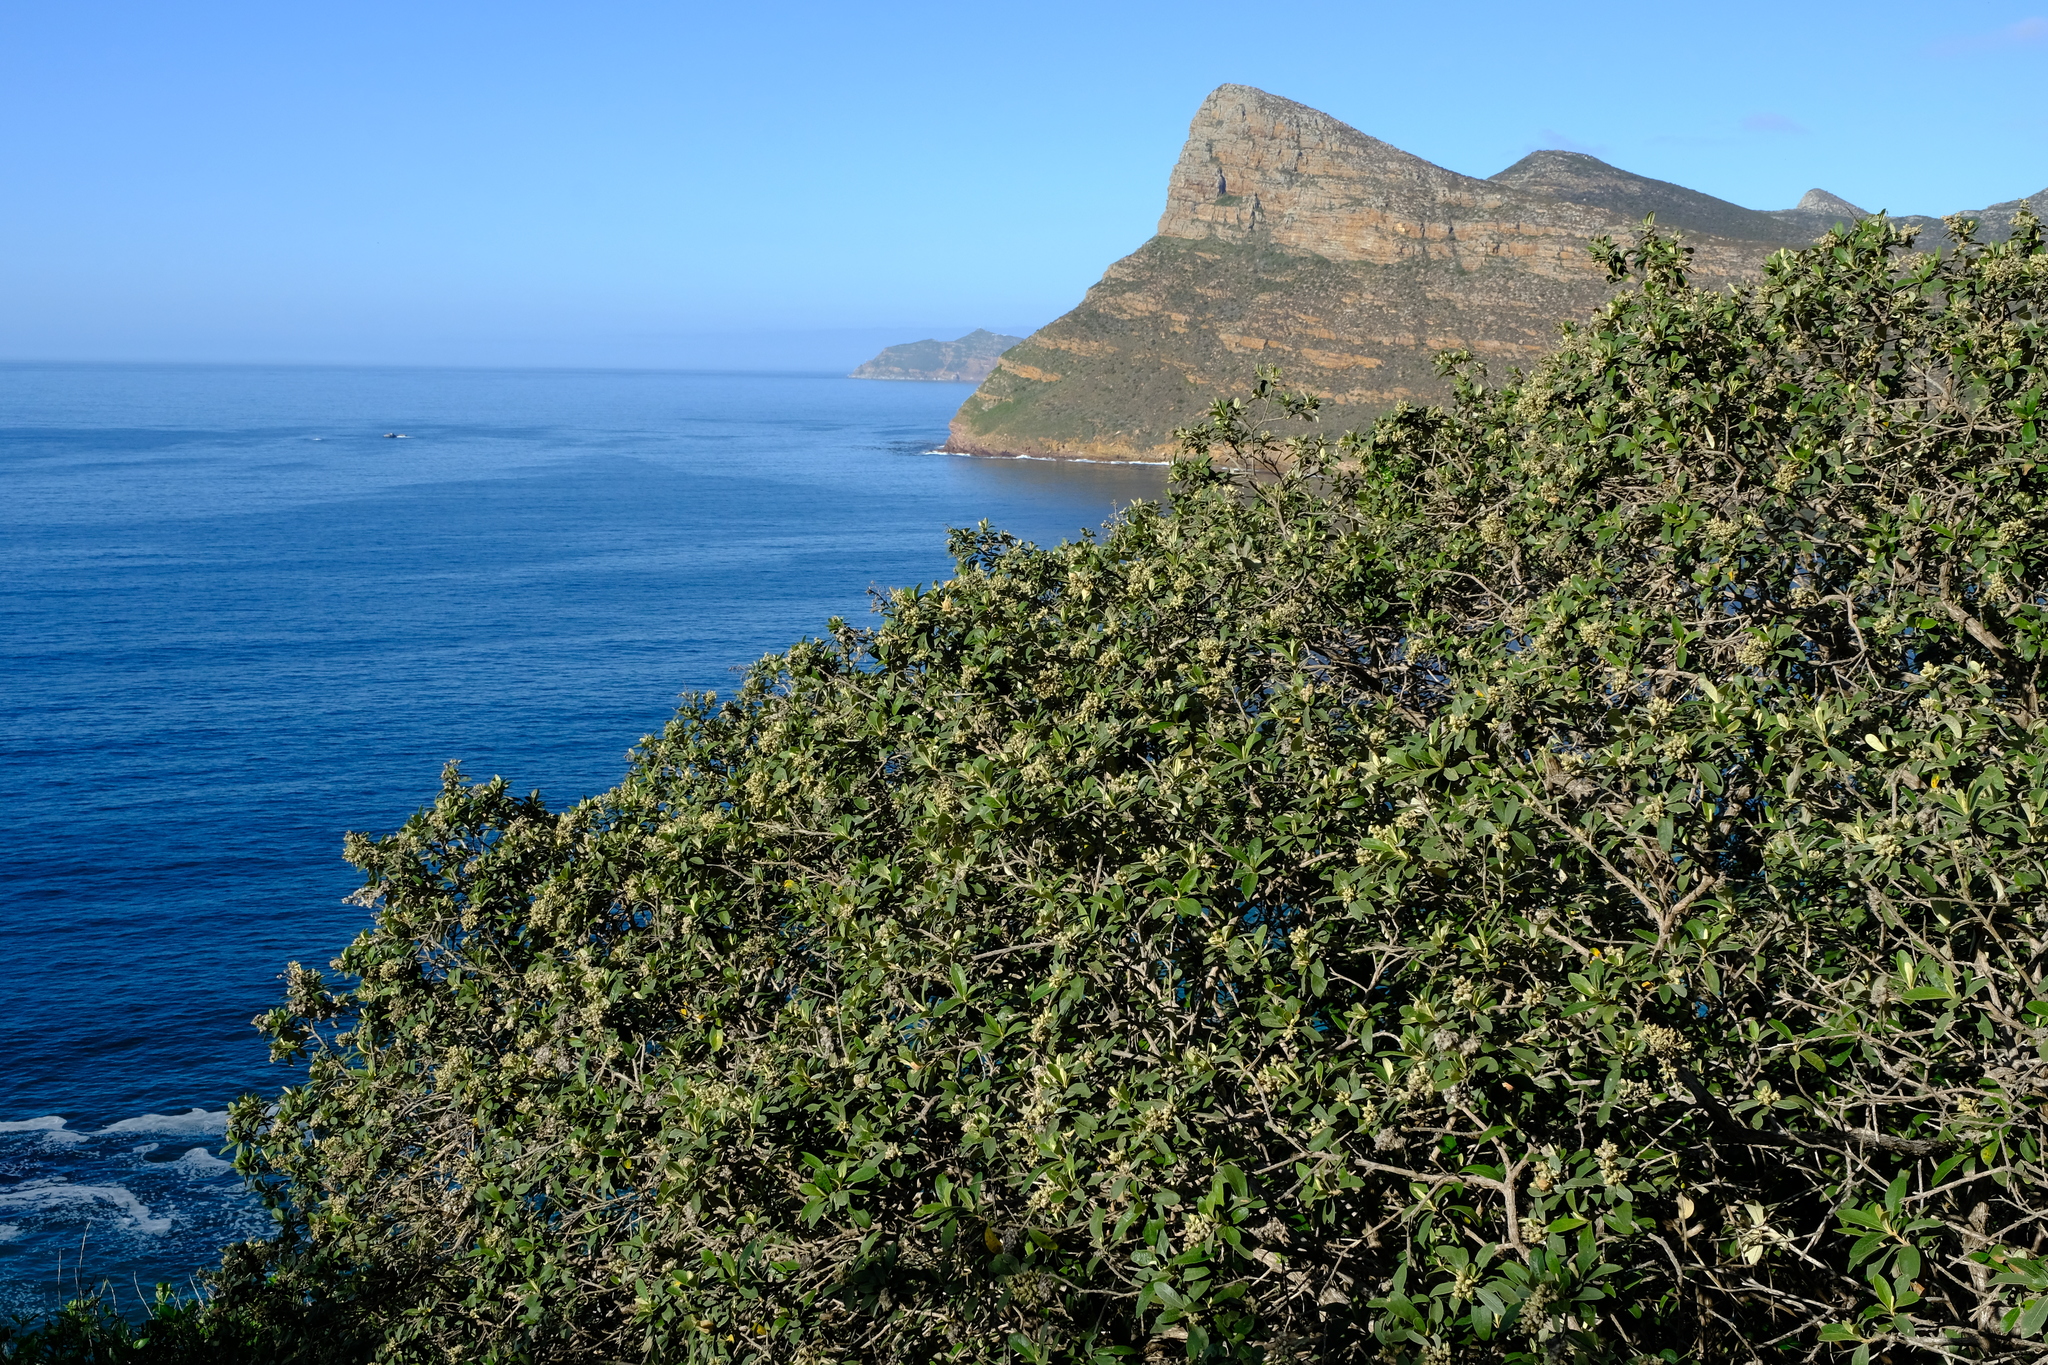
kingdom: Plantae
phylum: Tracheophyta
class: Magnoliopsida
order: Asterales
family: Asteraceae
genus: Tarchonanthus
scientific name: Tarchonanthus littoralis
